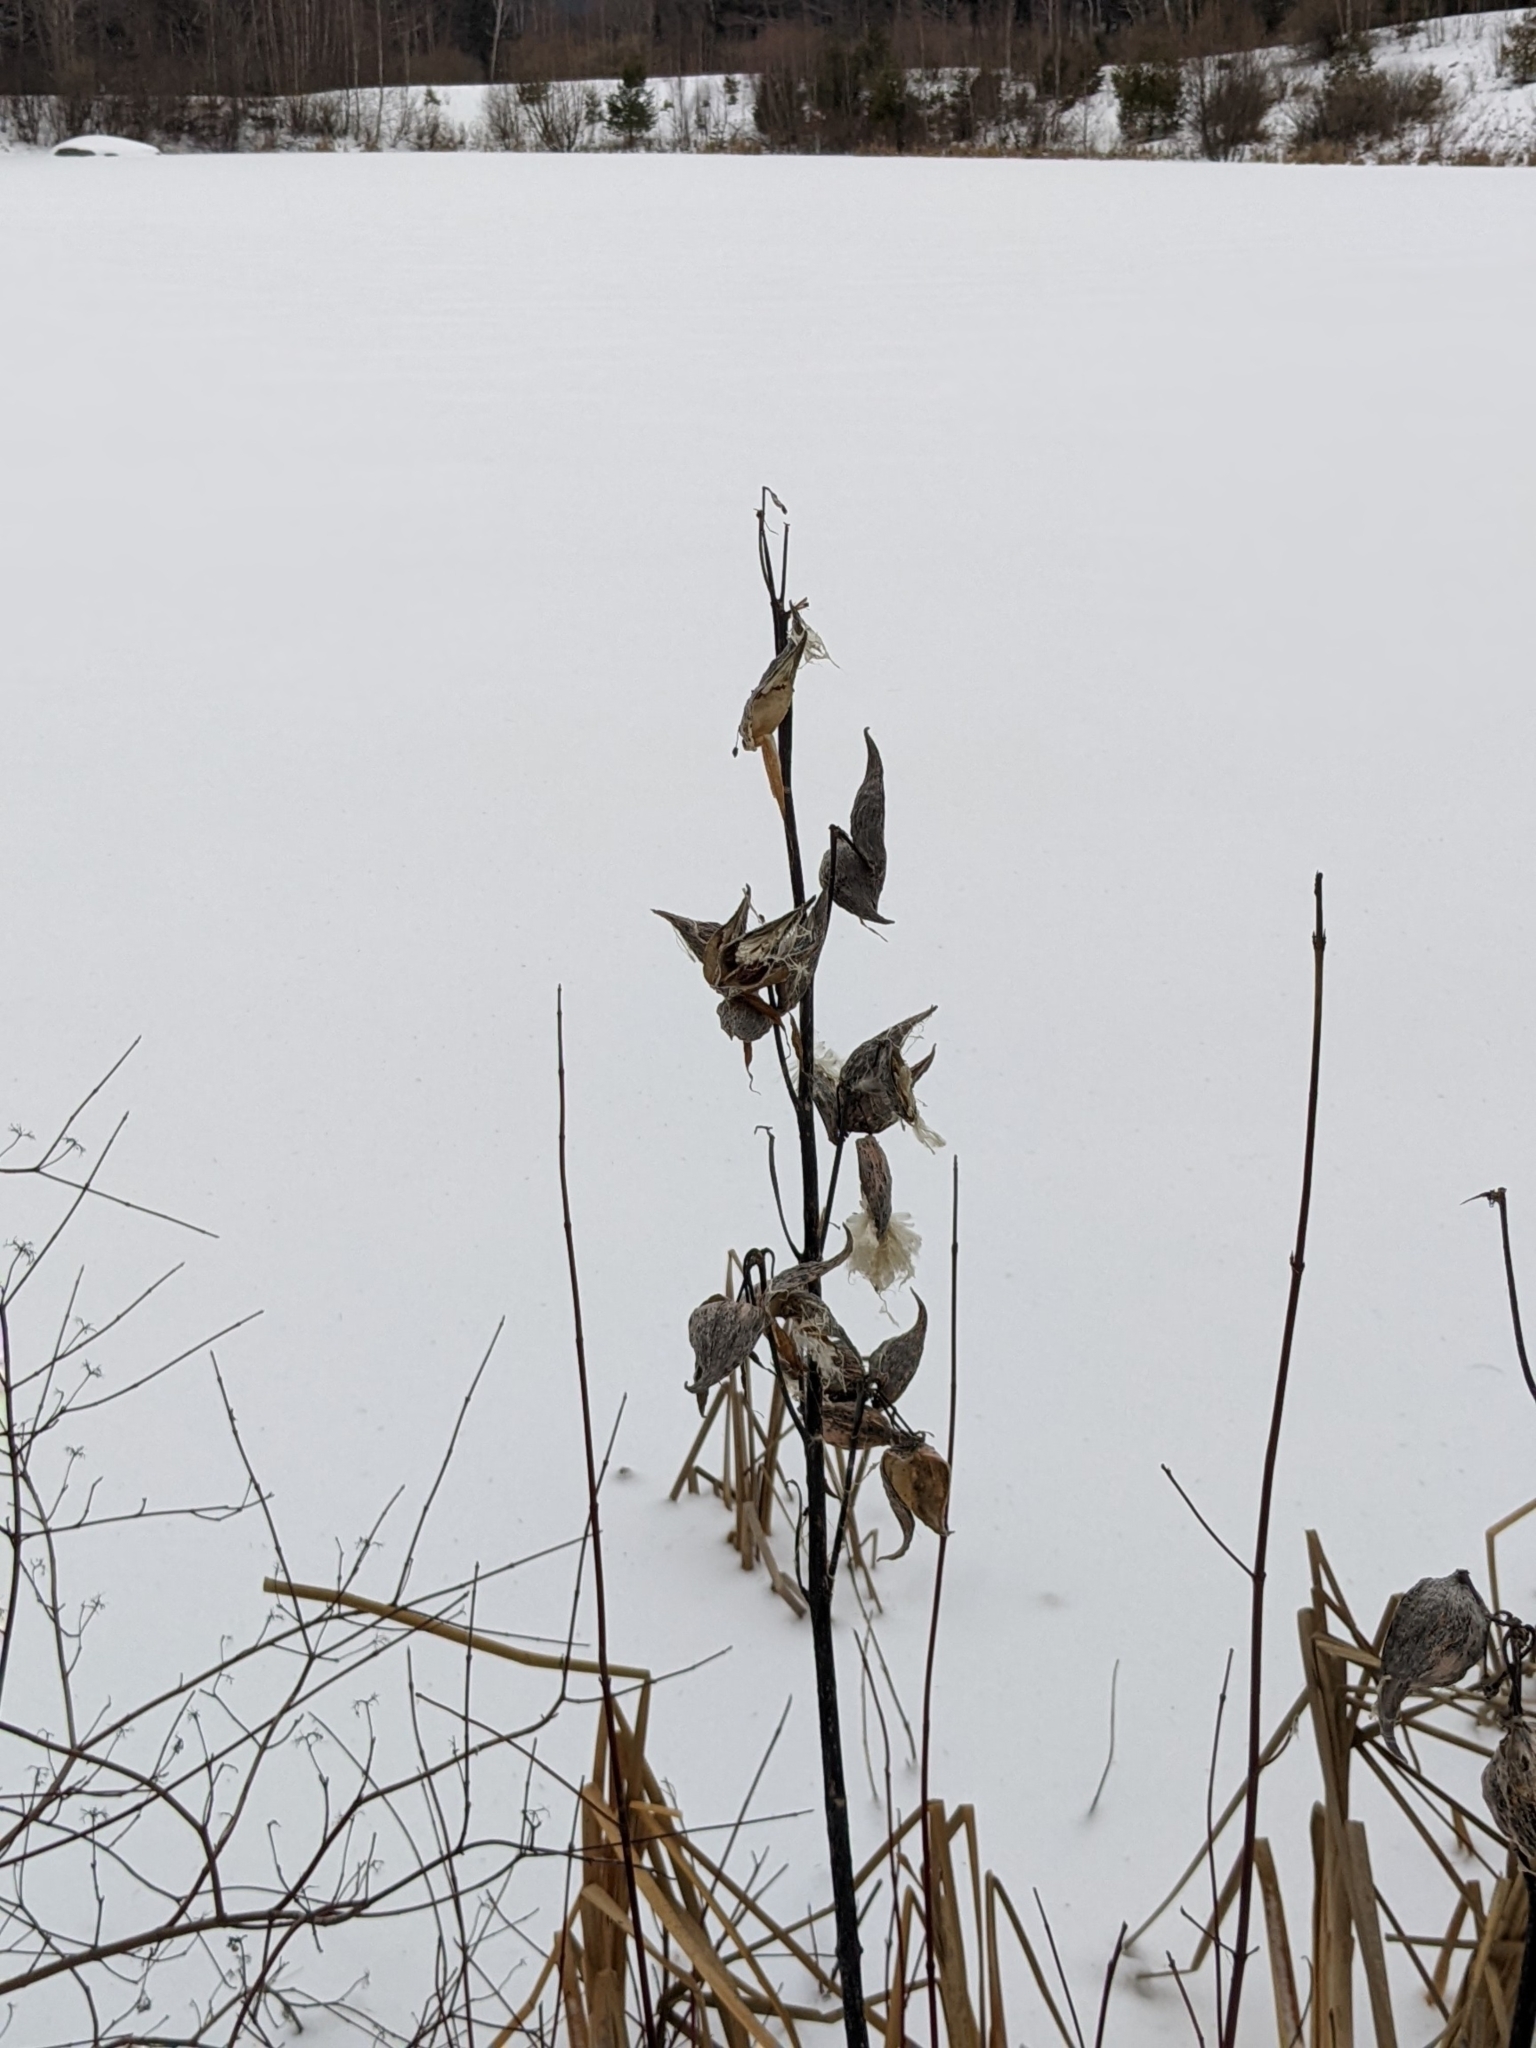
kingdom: Plantae
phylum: Tracheophyta
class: Magnoliopsida
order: Gentianales
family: Apocynaceae
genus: Asclepias
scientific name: Asclepias syriaca
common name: Common milkweed
